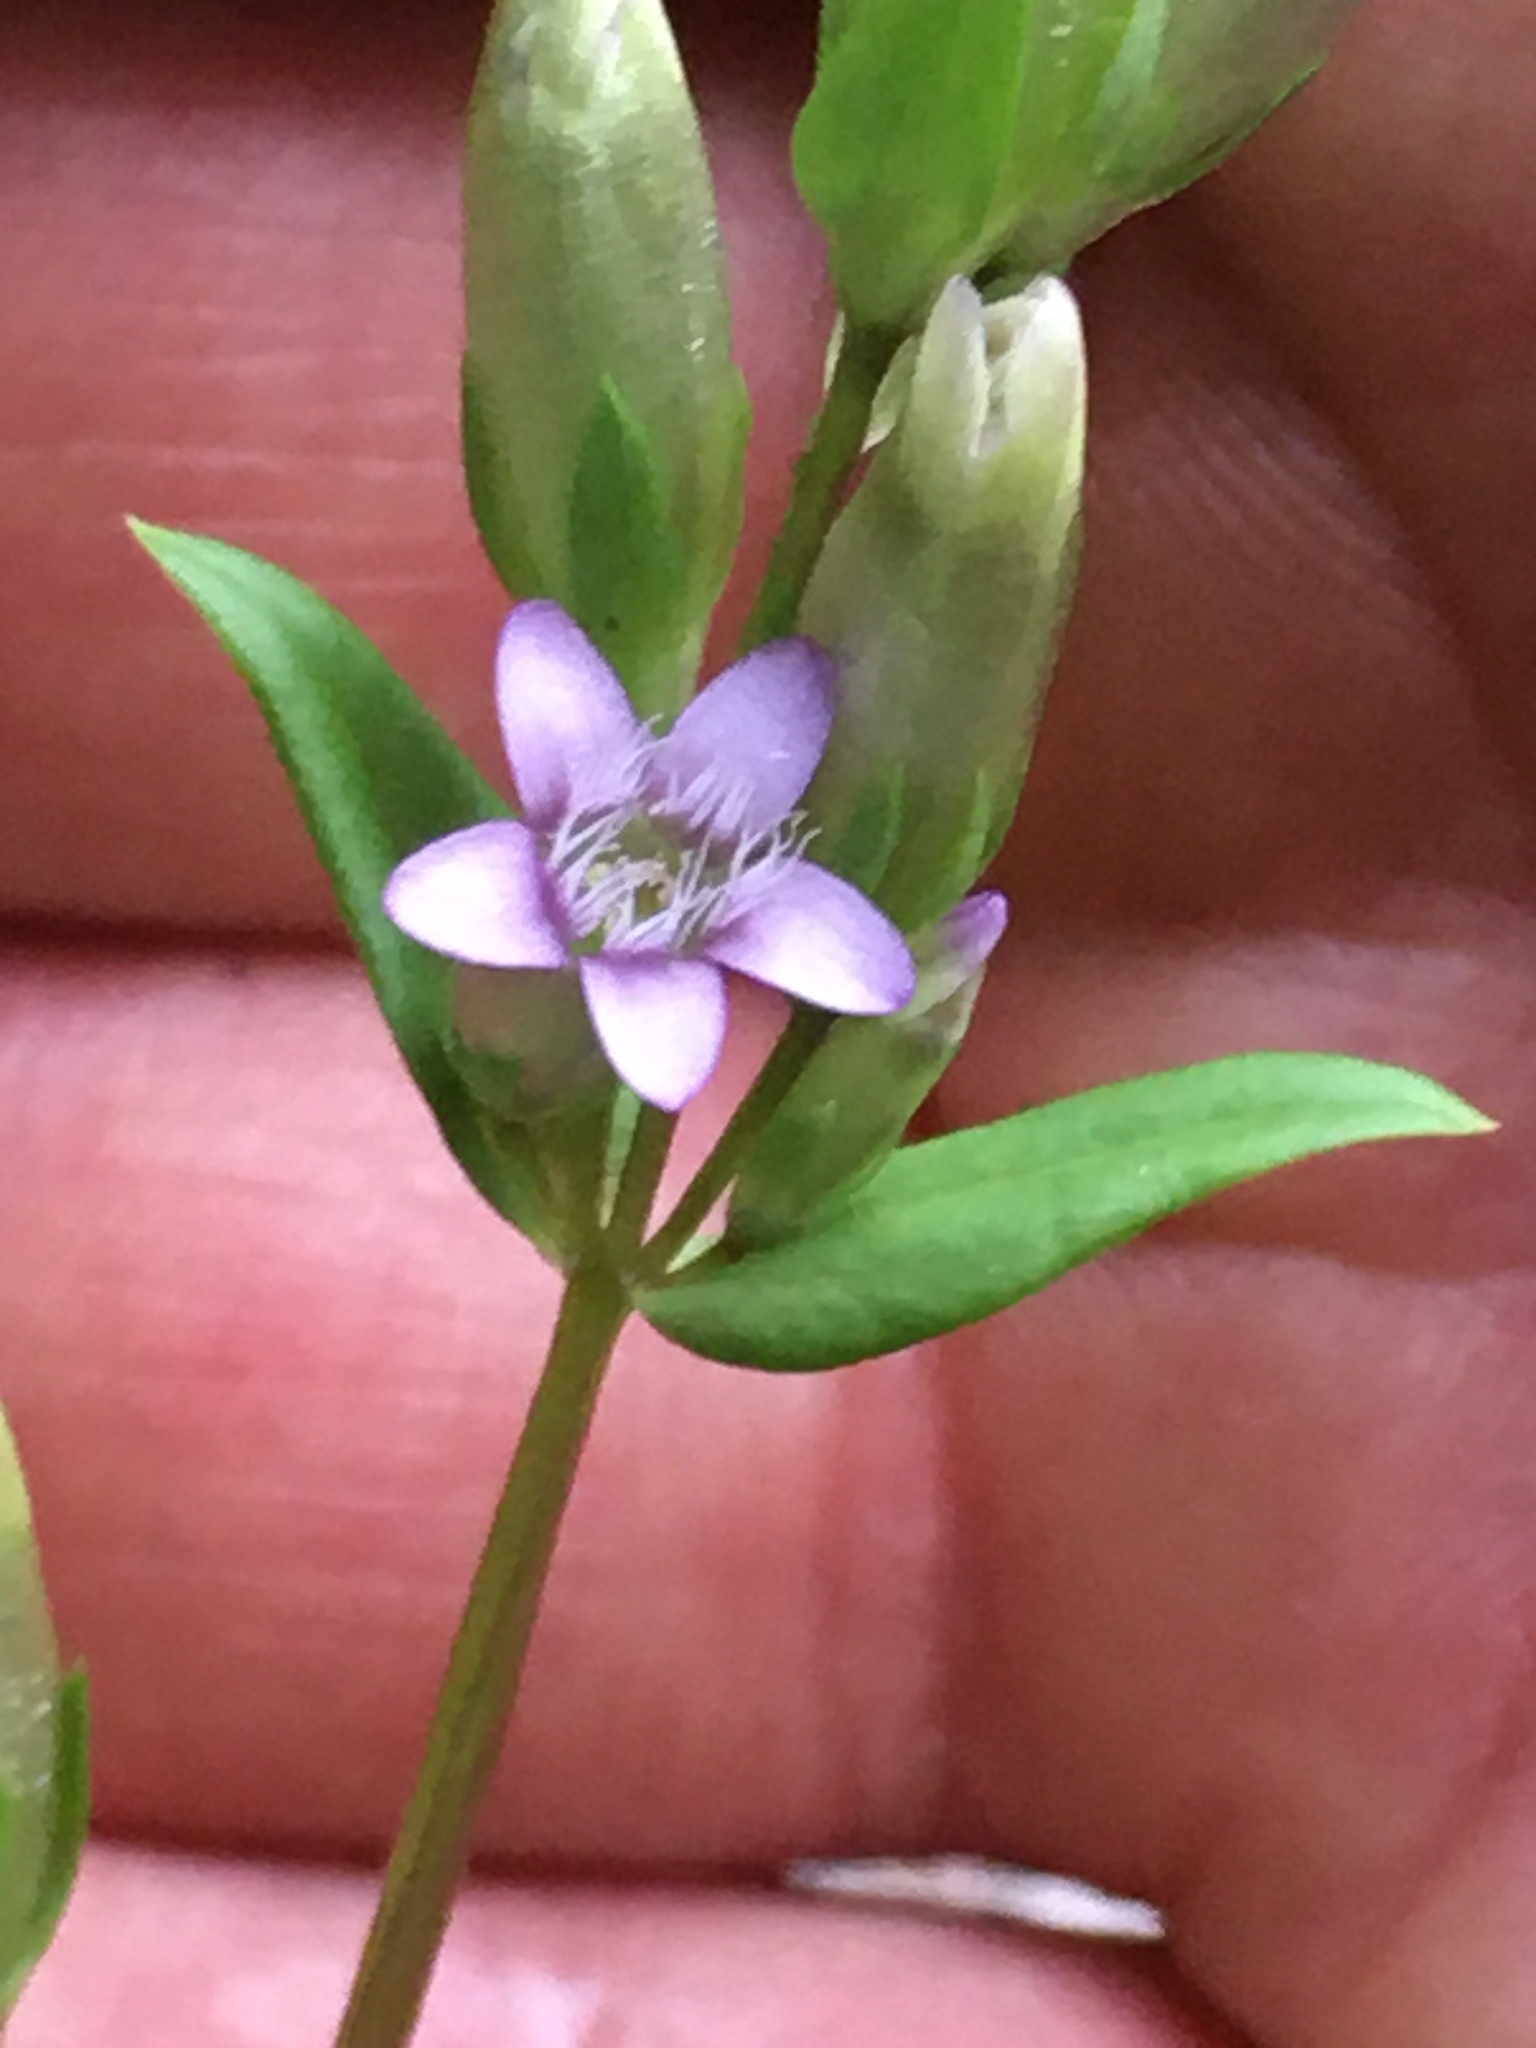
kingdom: Plantae
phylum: Tracheophyta
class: Magnoliopsida
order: Gentianales
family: Gentianaceae
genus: Gentianella
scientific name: Gentianella amarella
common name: Autumn gentian
